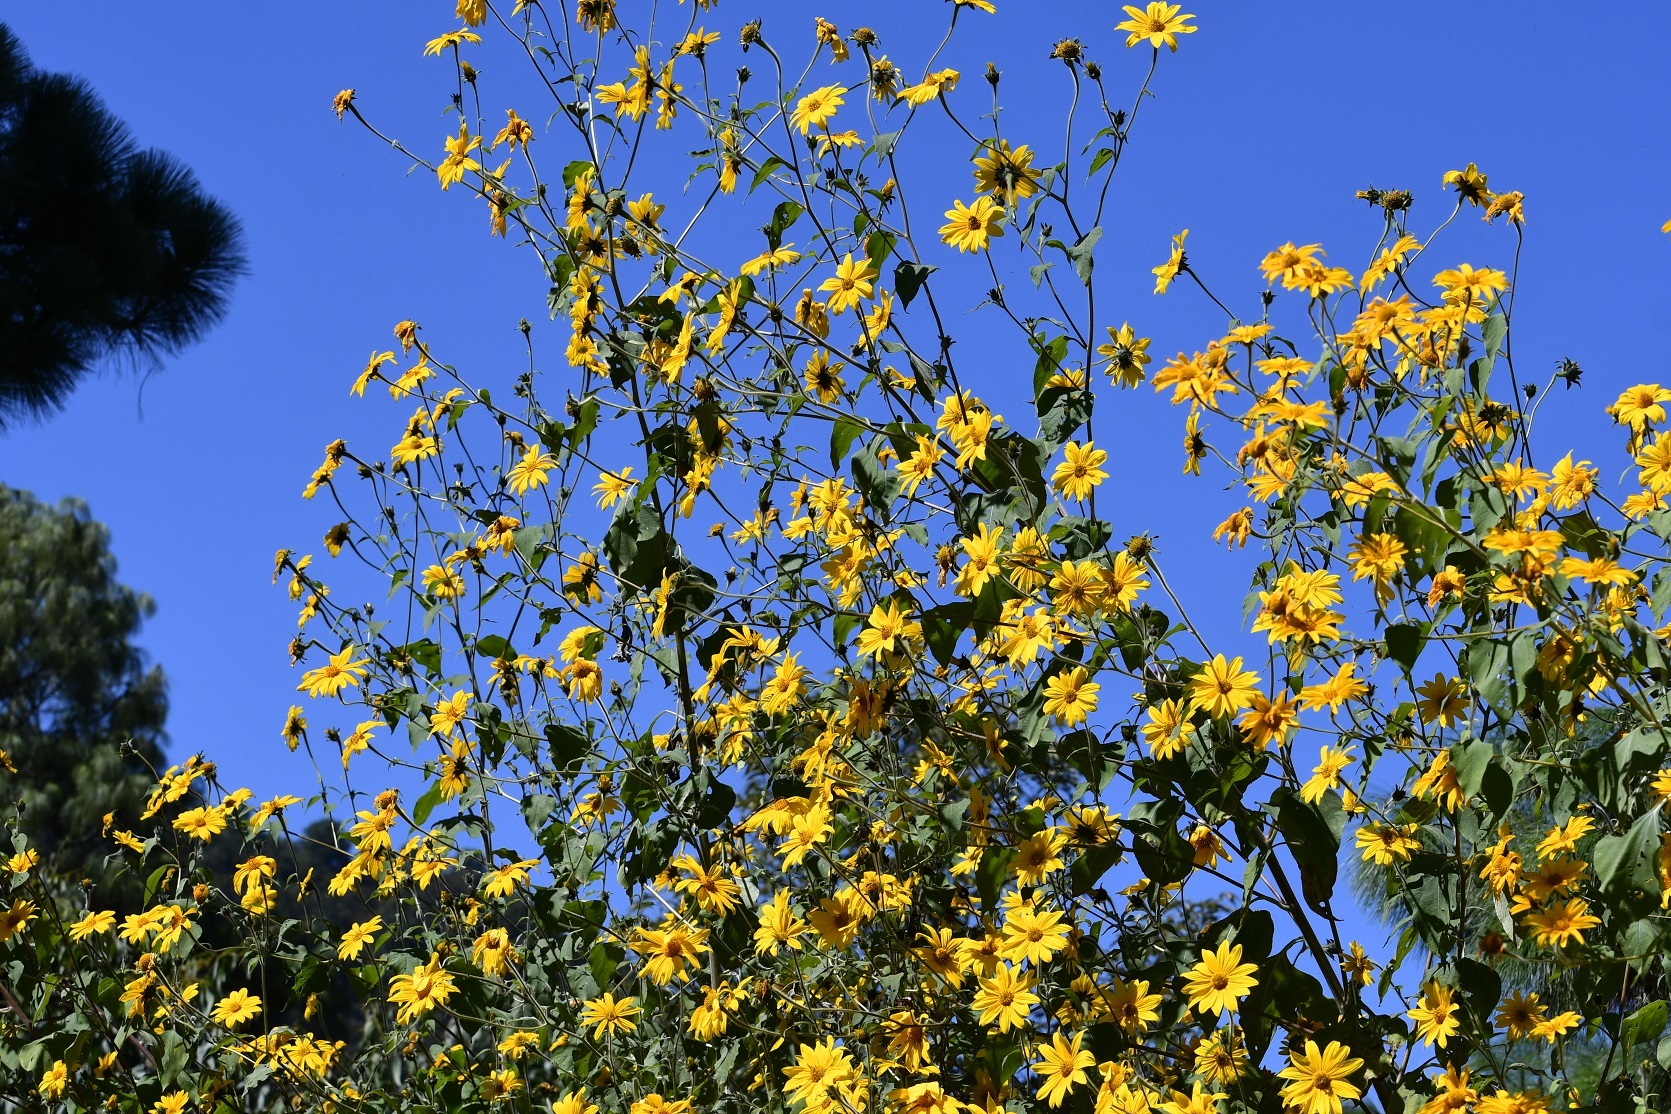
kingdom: Plantae
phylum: Tracheophyta
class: Magnoliopsida
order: Asterales
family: Asteraceae
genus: Tithonia
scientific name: Tithonia tubaeformis
